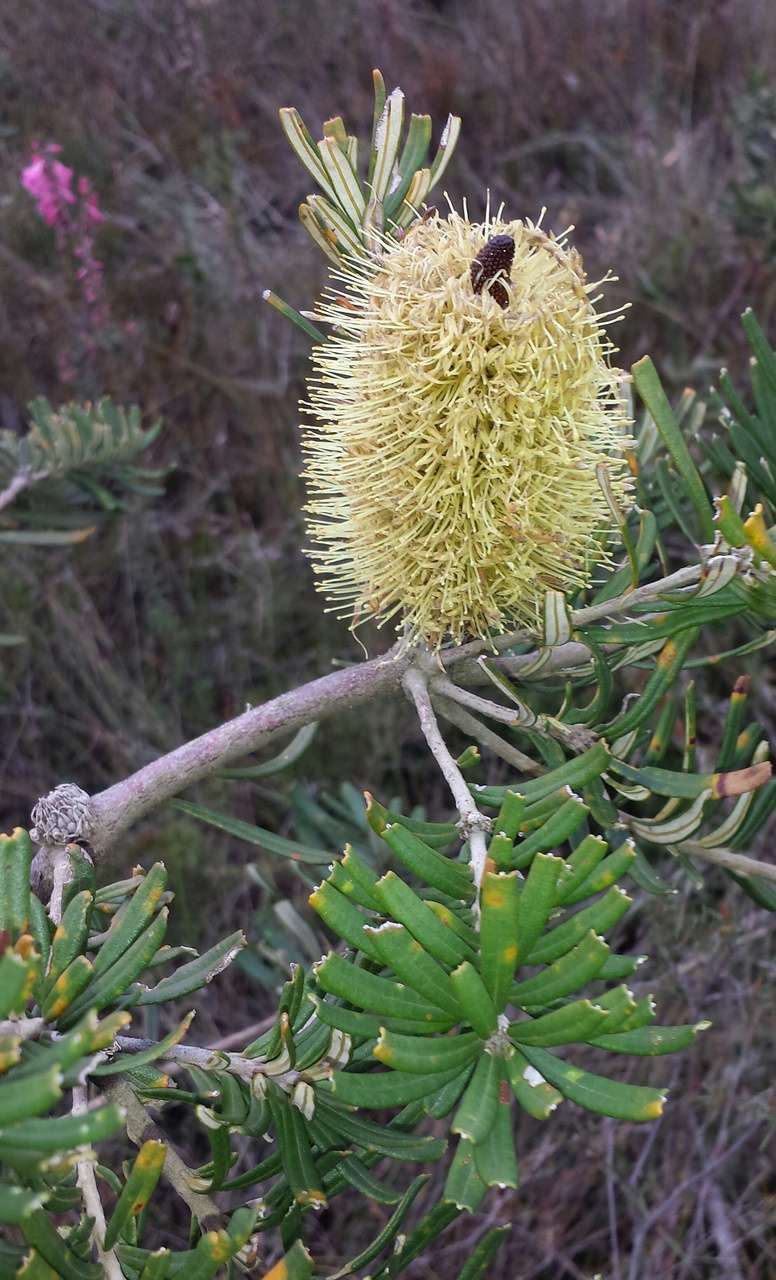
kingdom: Plantae
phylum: Tracheophyta
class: Magnoliopsida
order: Proteales
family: Proteaceae
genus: Banksia
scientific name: Banksia marginata
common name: Silver banksia
